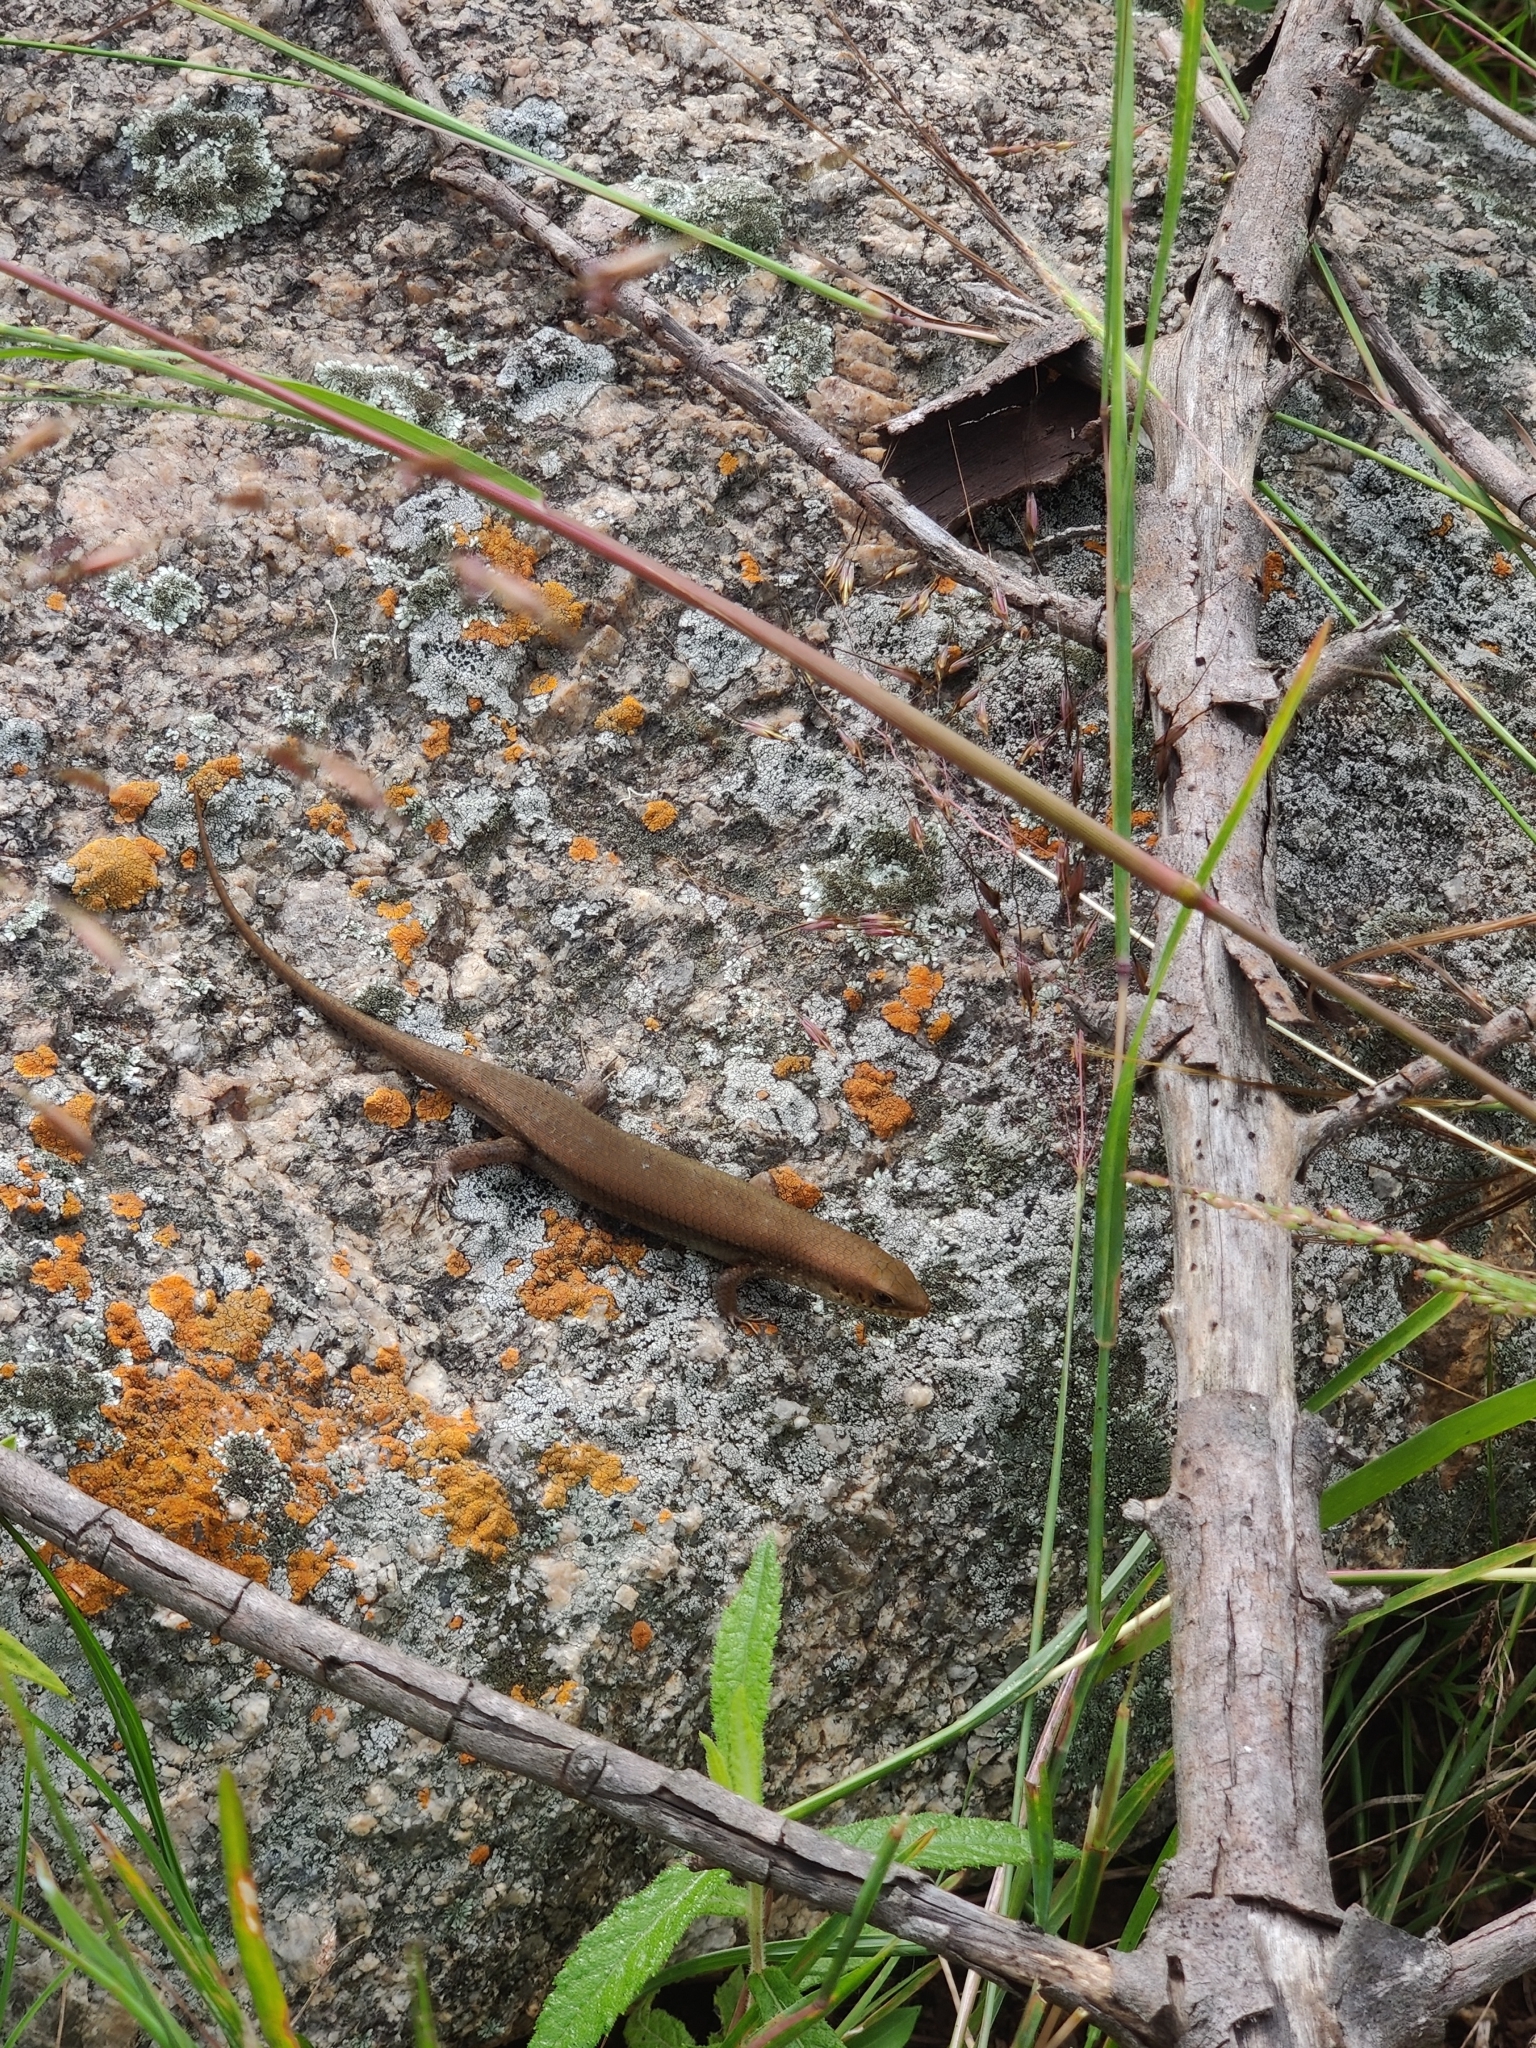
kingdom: Animalia
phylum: Chordata
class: Squamata
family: Scincidae
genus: Eutropis
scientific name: Eutropis macularia
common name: Bronze mabuya
